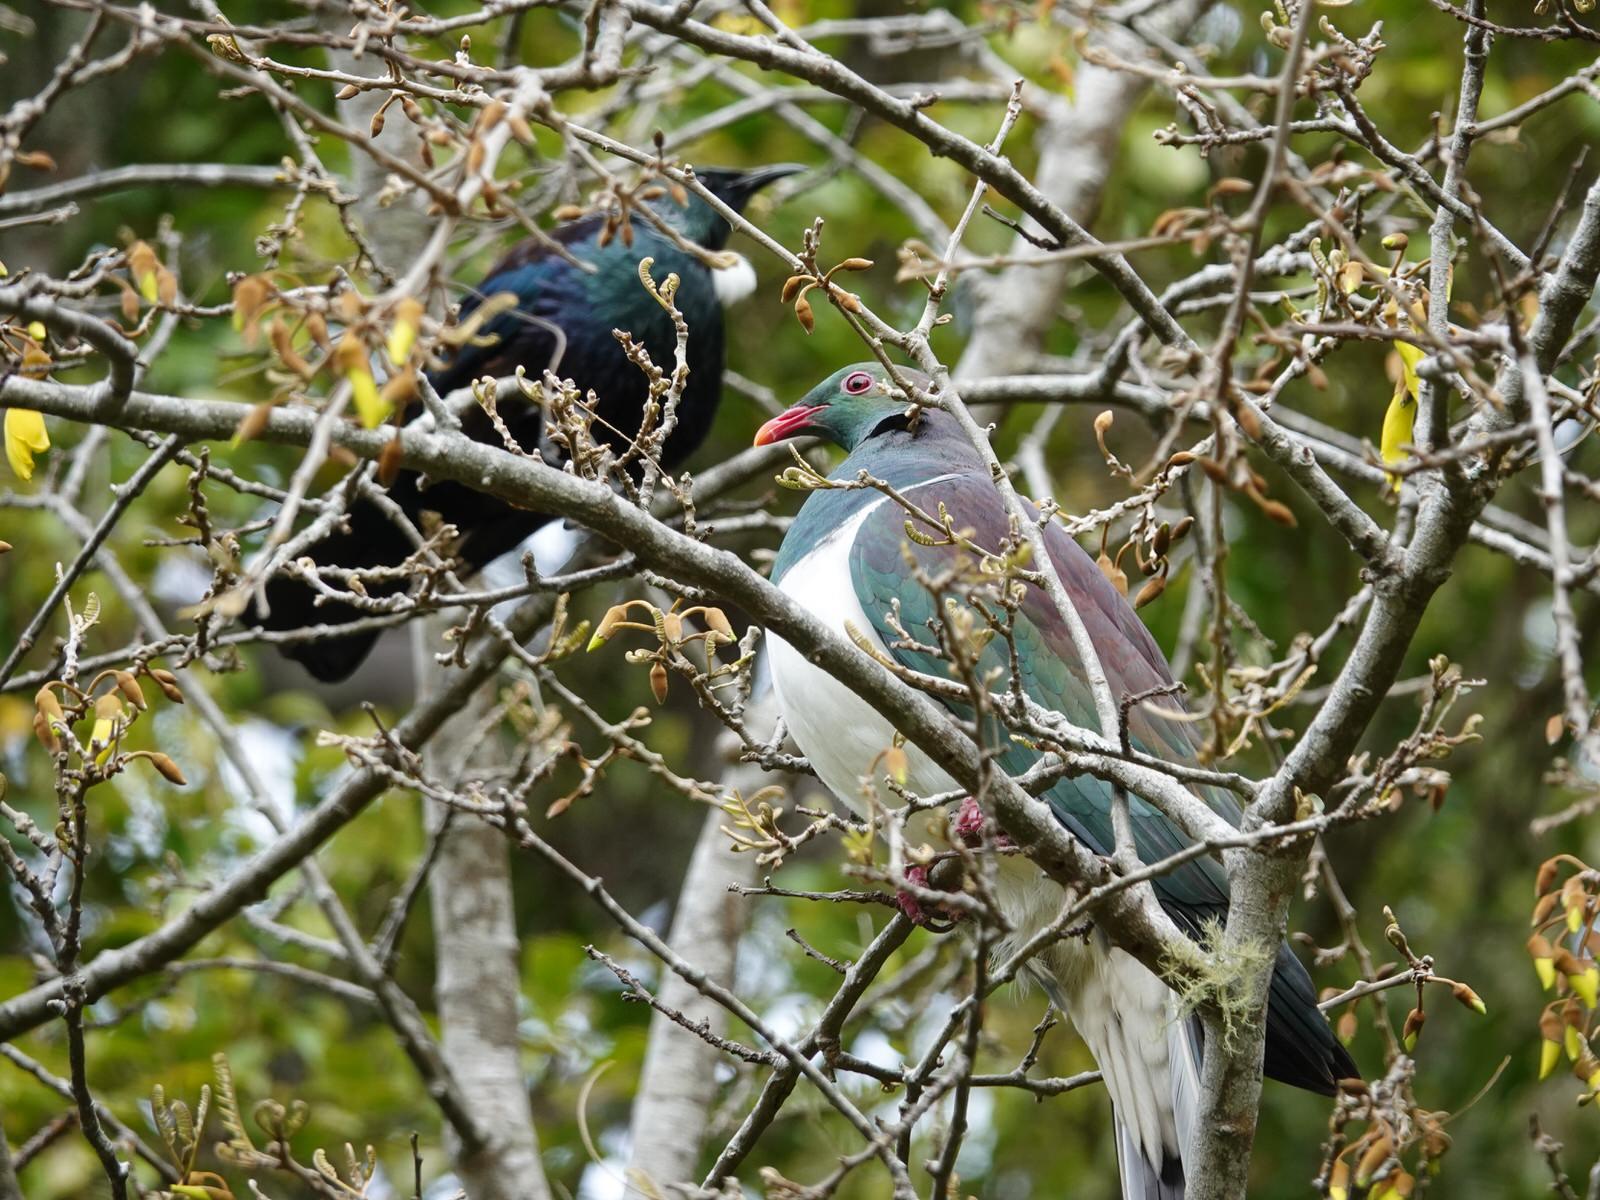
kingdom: Animalia
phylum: Chordata
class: Aves
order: Columbiformes
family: Columbidae
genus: Hemiphaga
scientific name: Hemiphaga novaeseelandiae
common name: New zealand pigeon
